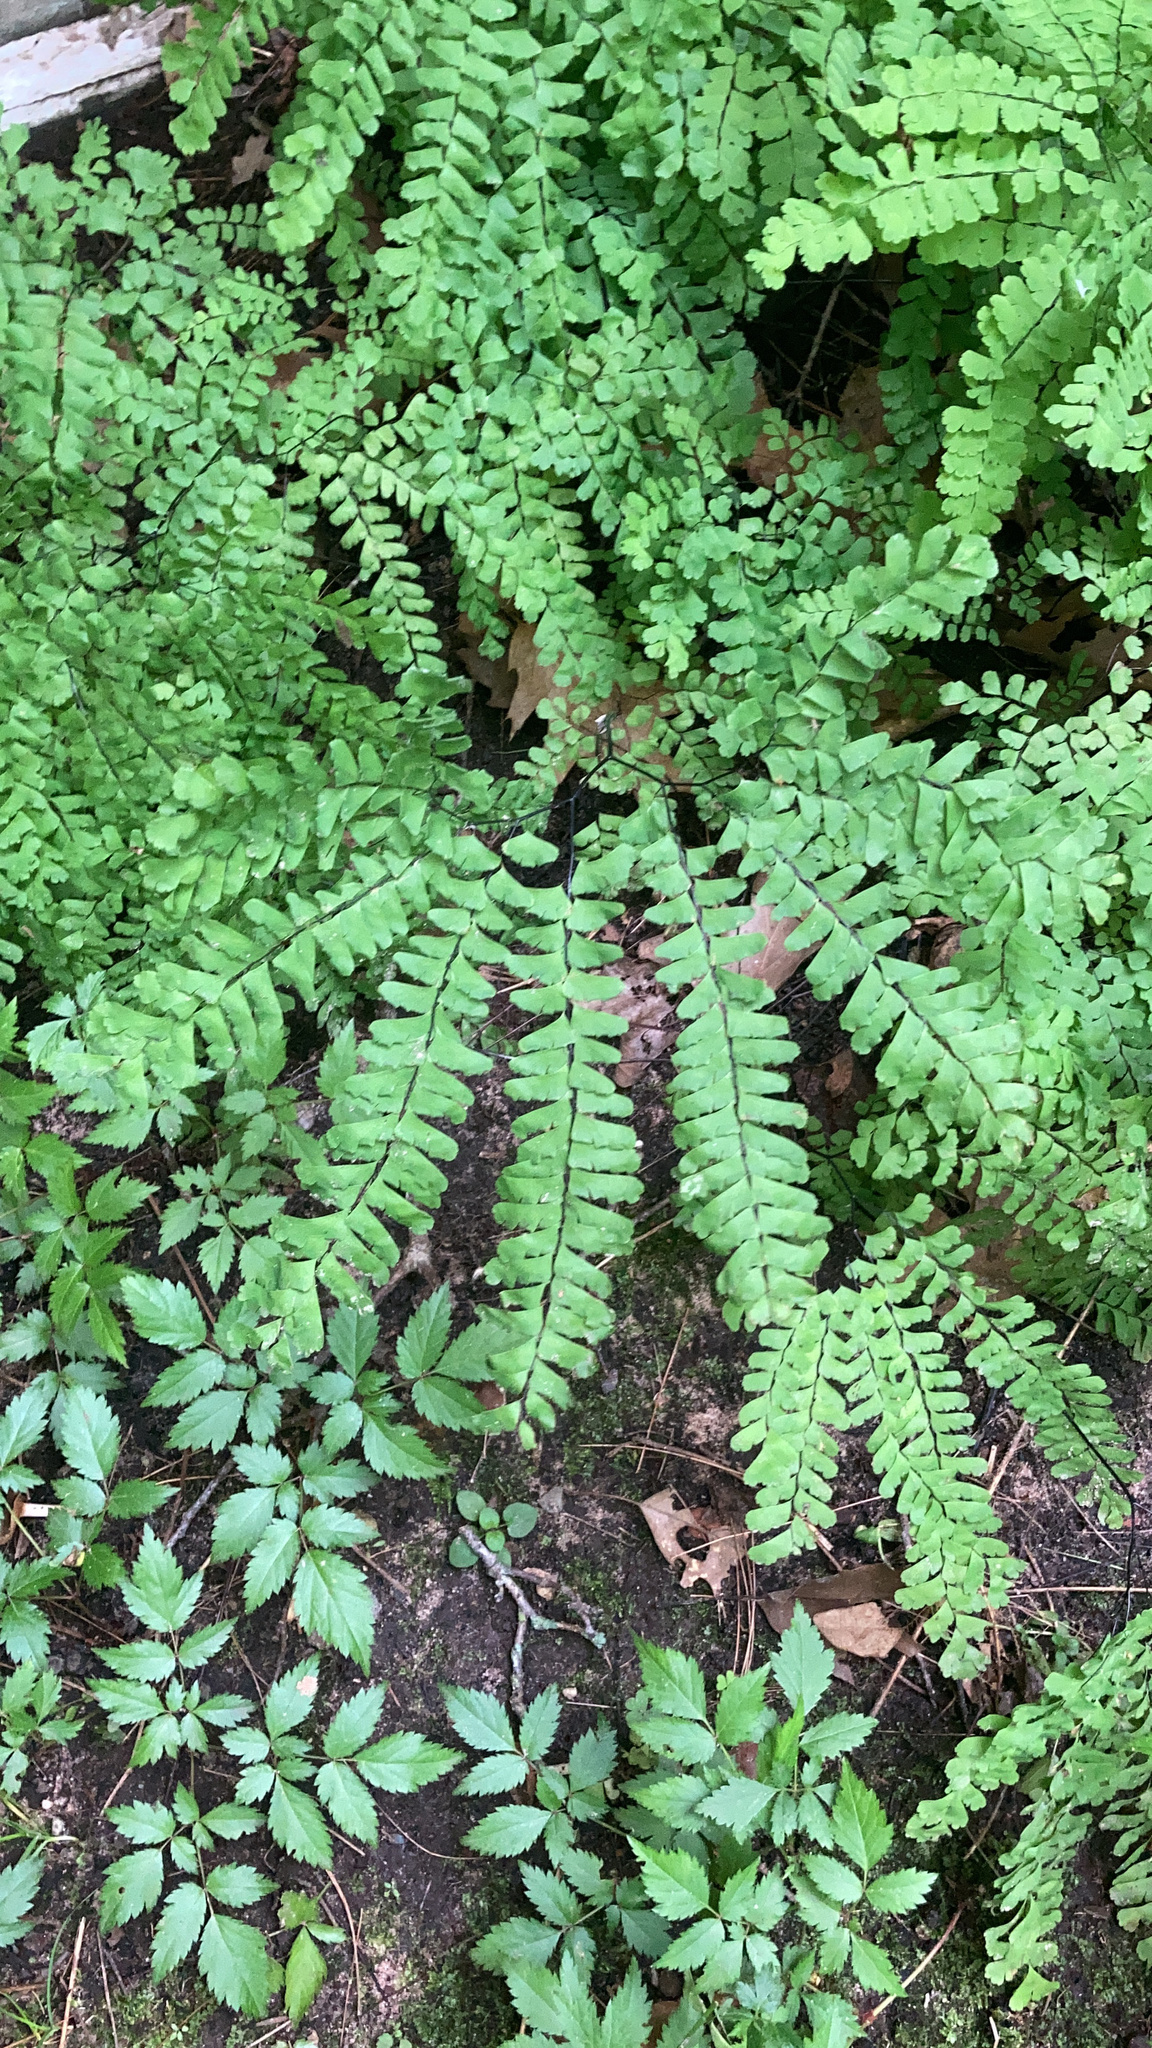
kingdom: Plantae
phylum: Tracheophyta
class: Polypodiopsida
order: Polypodiales
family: Pteridaceae
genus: Adiantum
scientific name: Adiantum pedatum
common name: Five-finger fern
